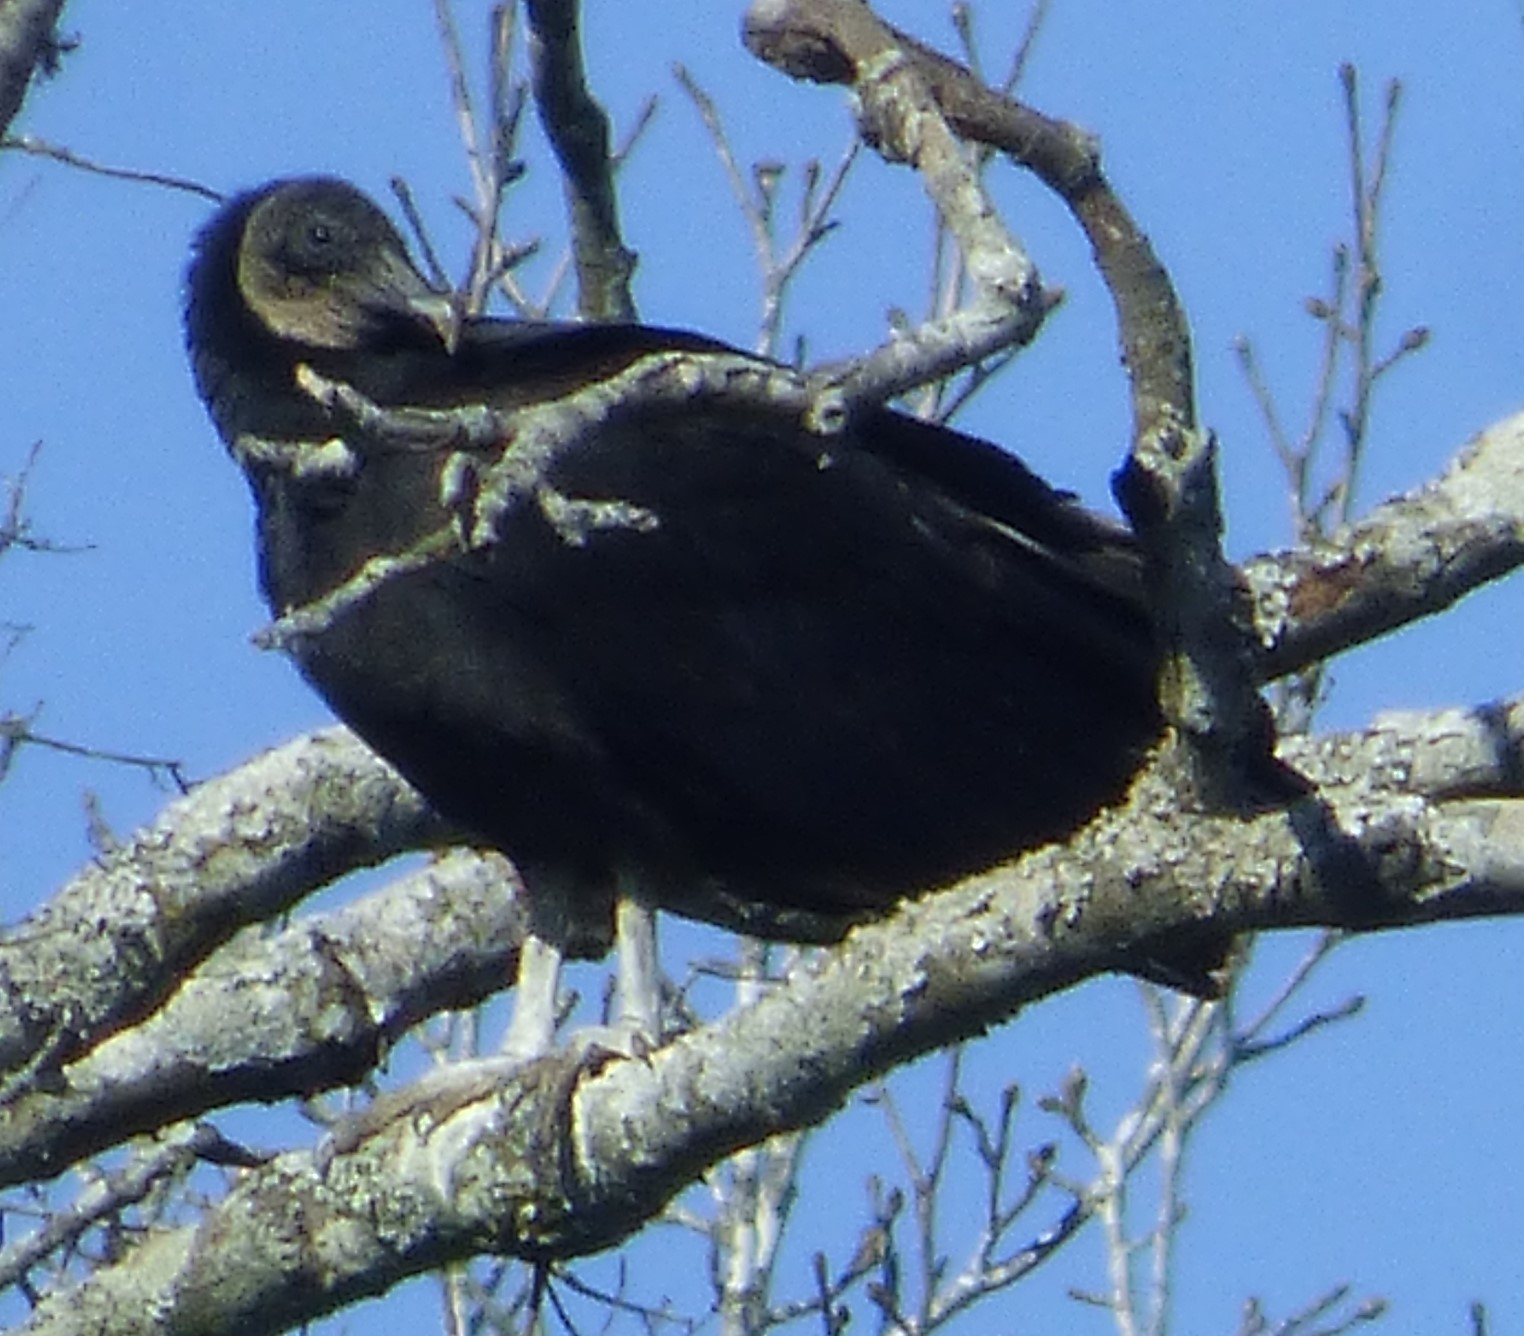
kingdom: Animalia
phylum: Chordata
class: Aves
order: Accipitriformes
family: Cathartidae
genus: Coragyps
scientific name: Coragyps atratus
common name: Black vulture
